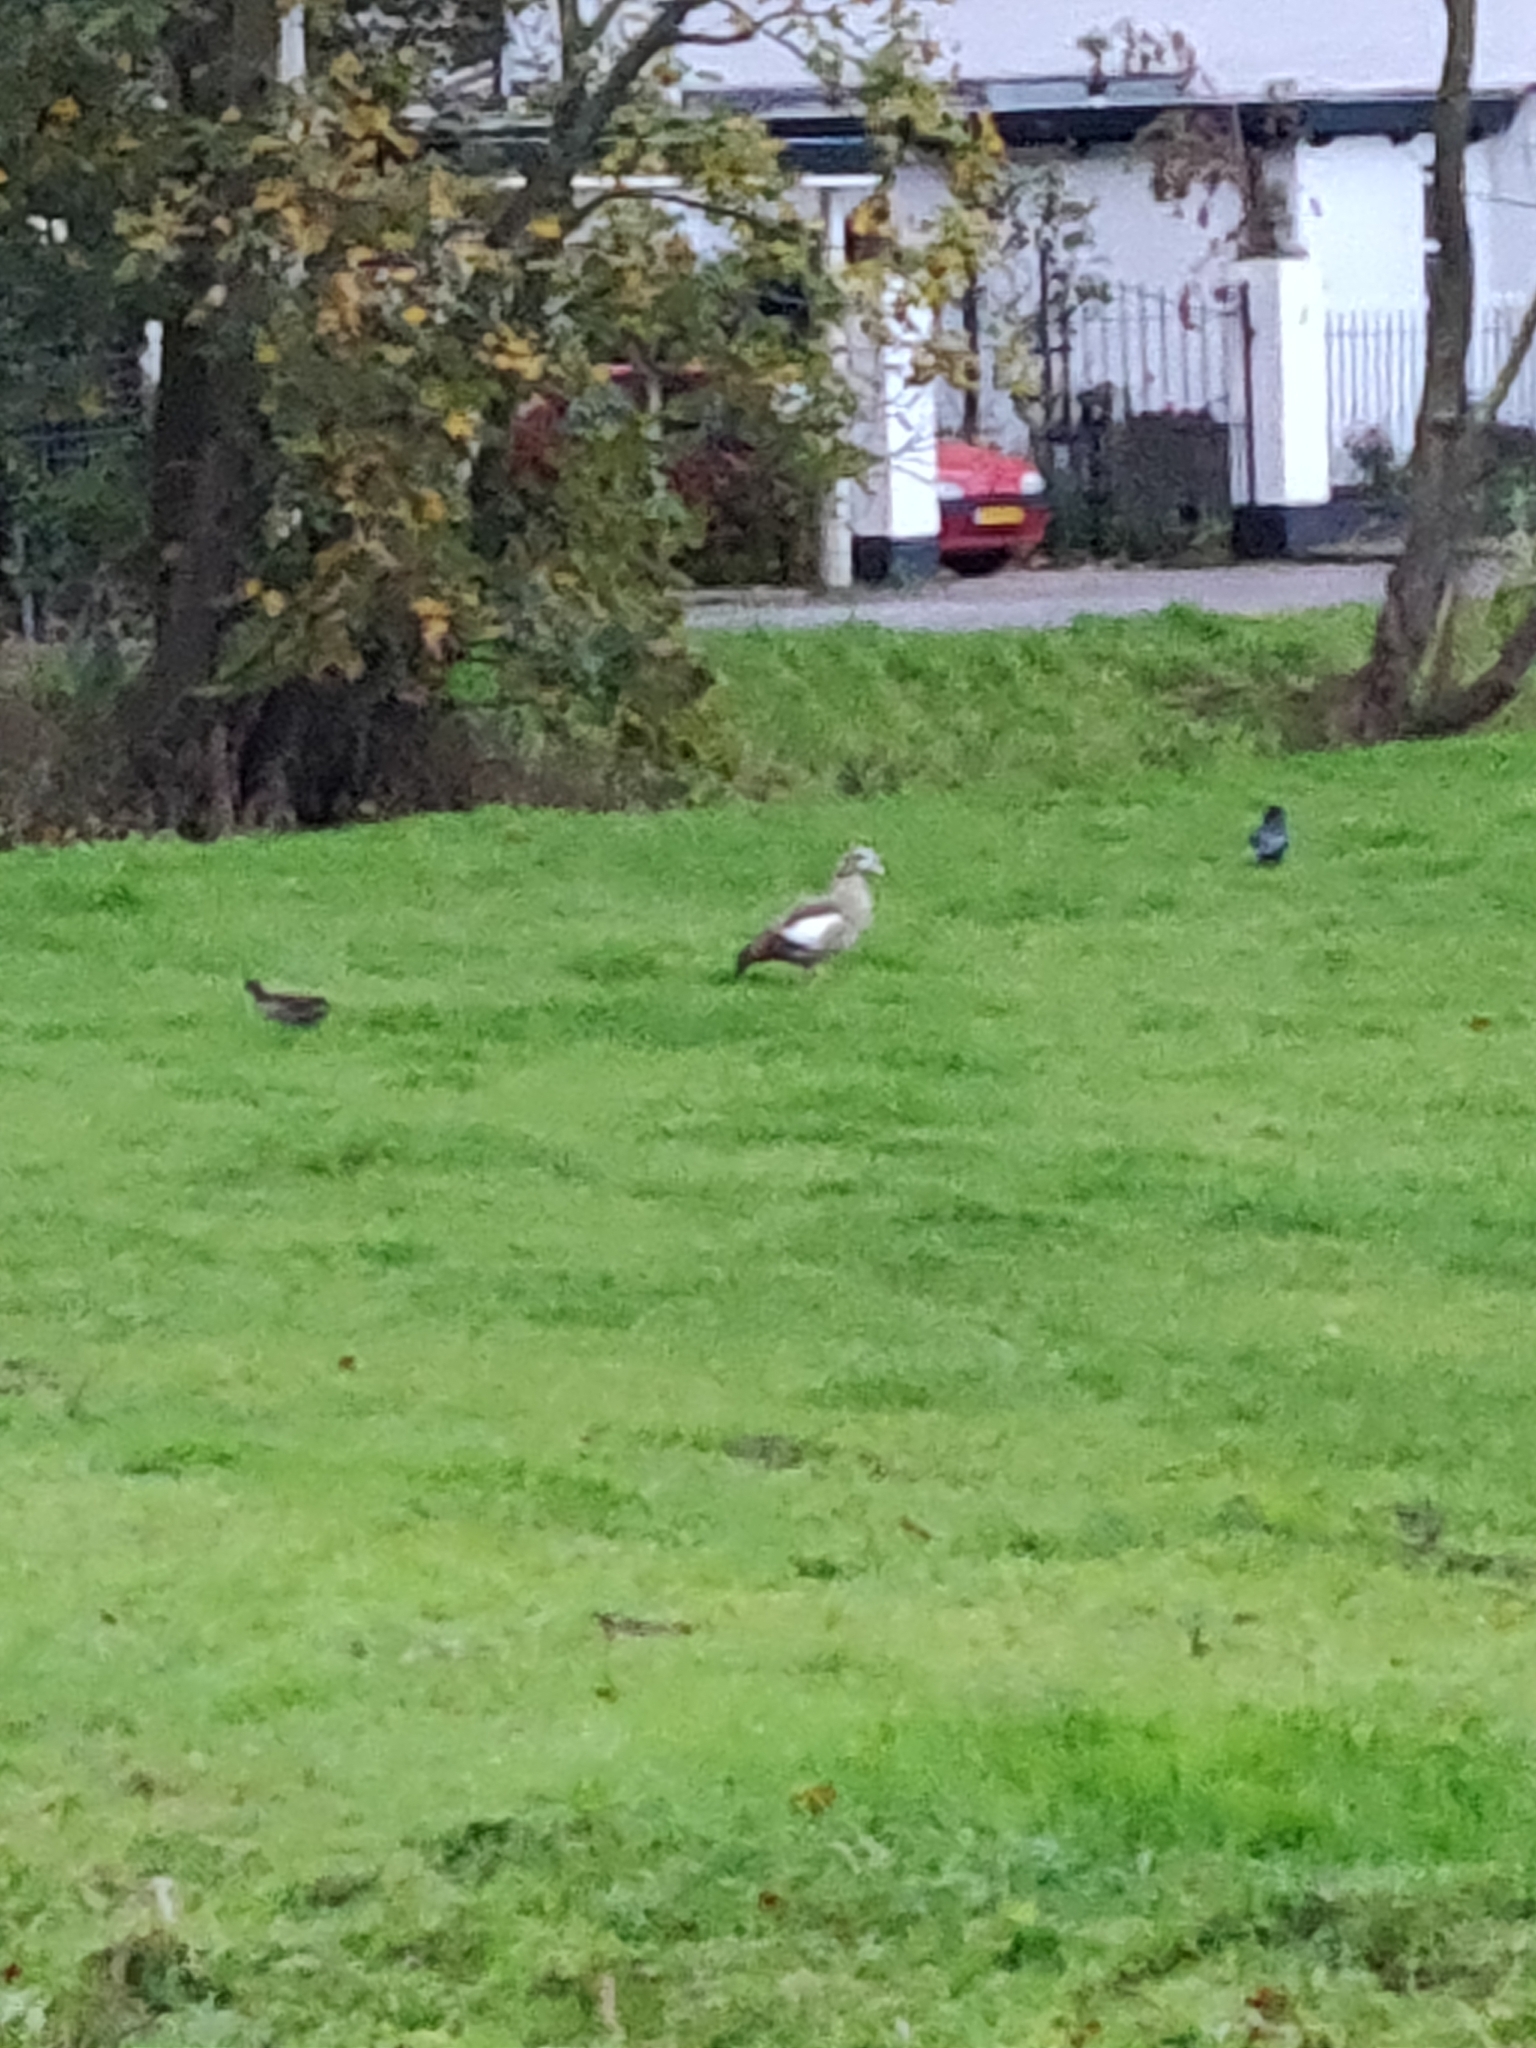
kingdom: Animalia
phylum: Chordata
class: Aves
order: Anseriformes
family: Anatidae
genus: Alopochen
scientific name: Alopochen aegyptiaca
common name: Egyptian goose
